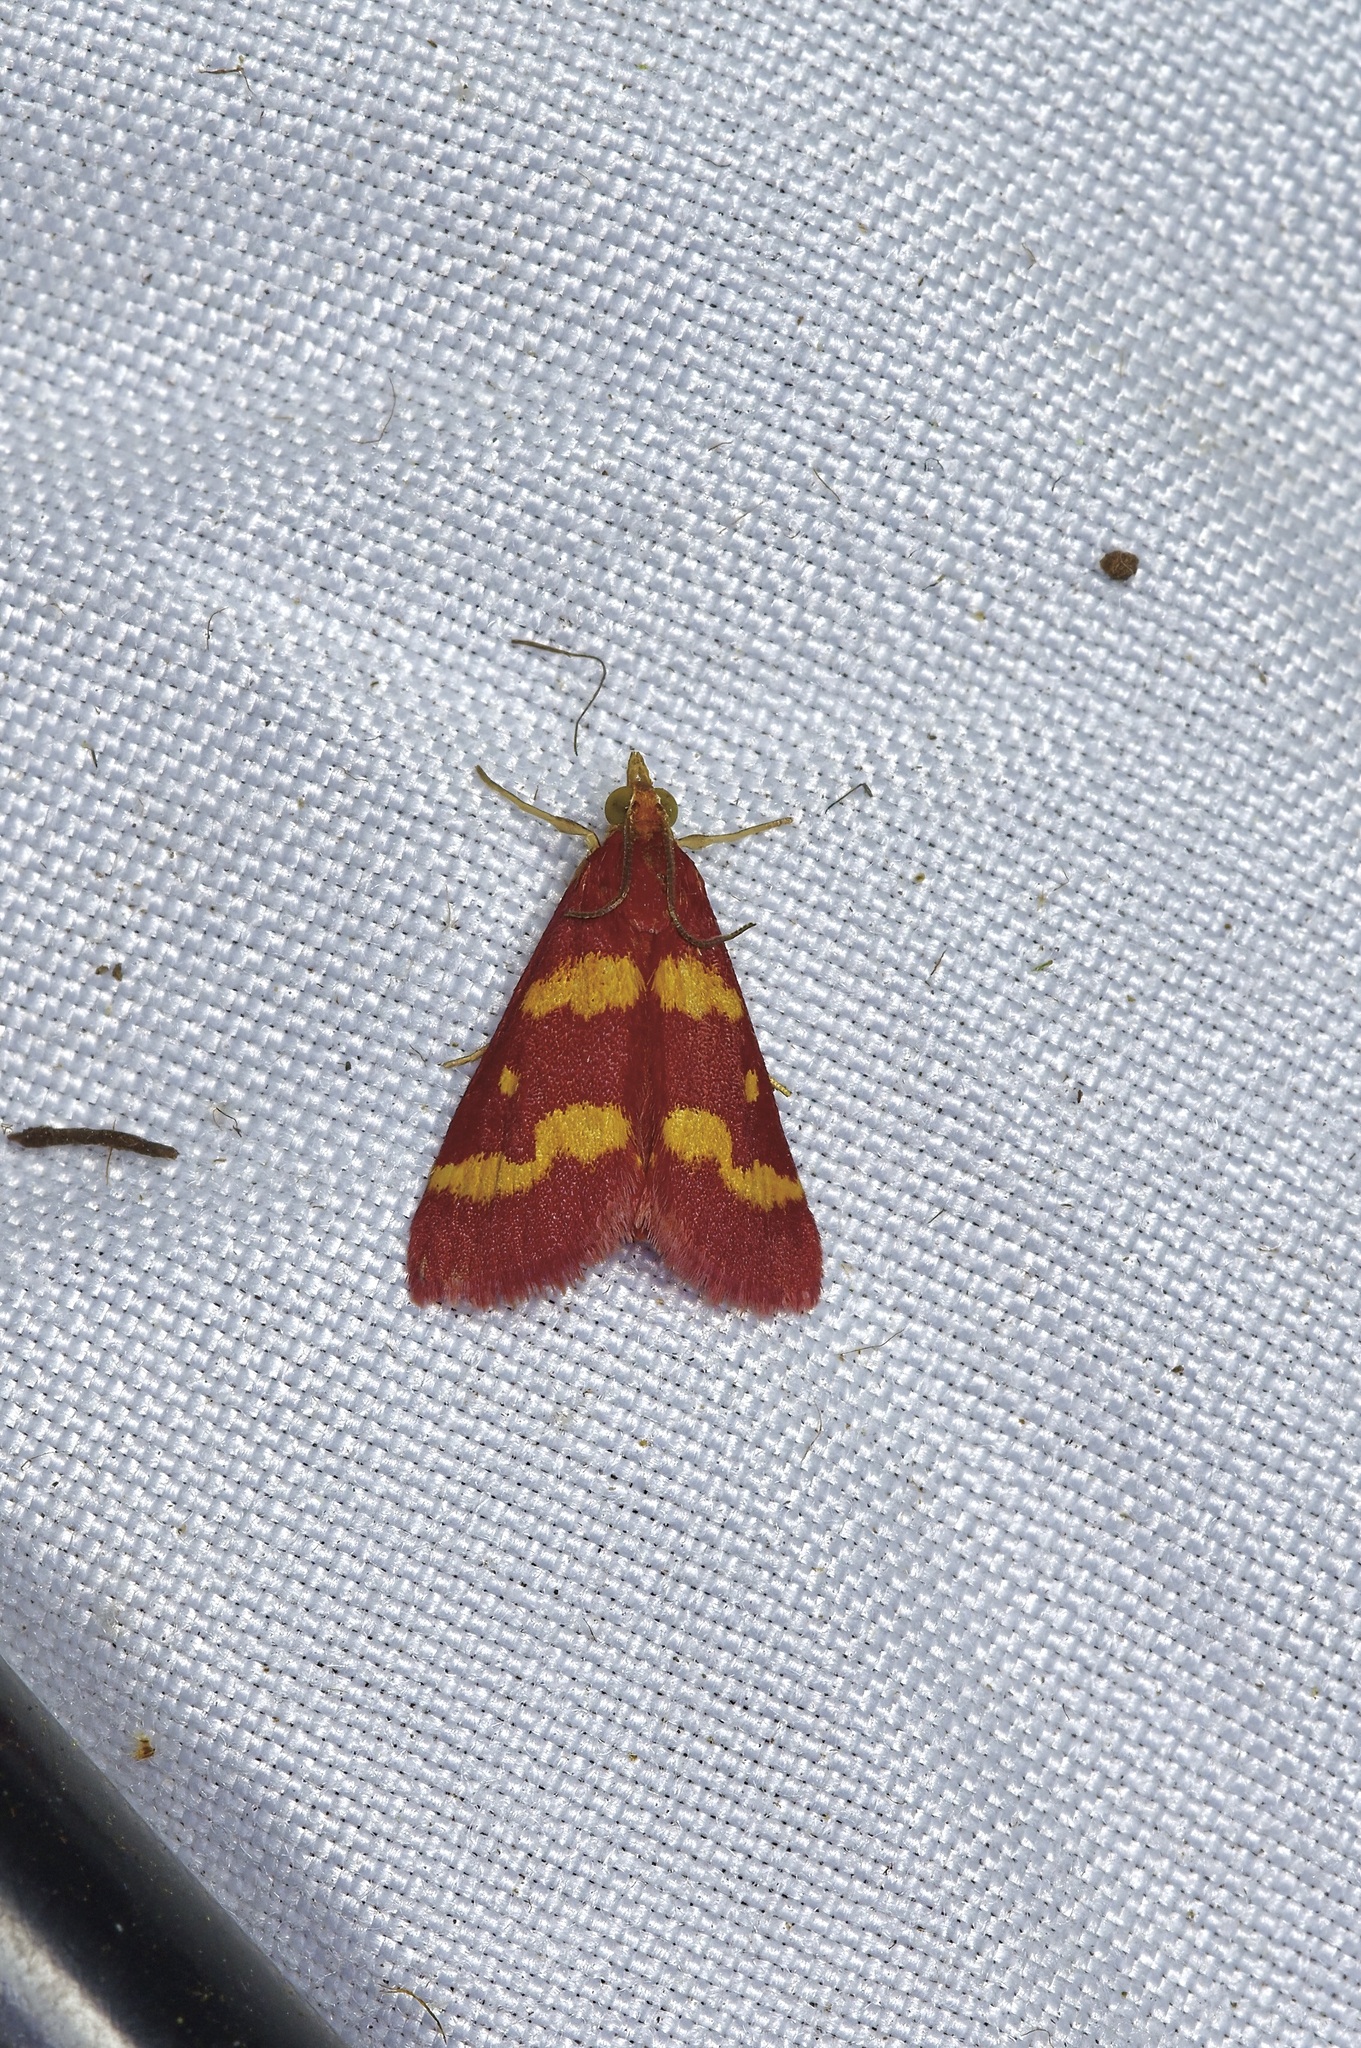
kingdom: Animalia
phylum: Arthropoda
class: Insecta
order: Lepidoptera
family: Crambidae
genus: Pyrausta
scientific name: Pyrausta tyralis
